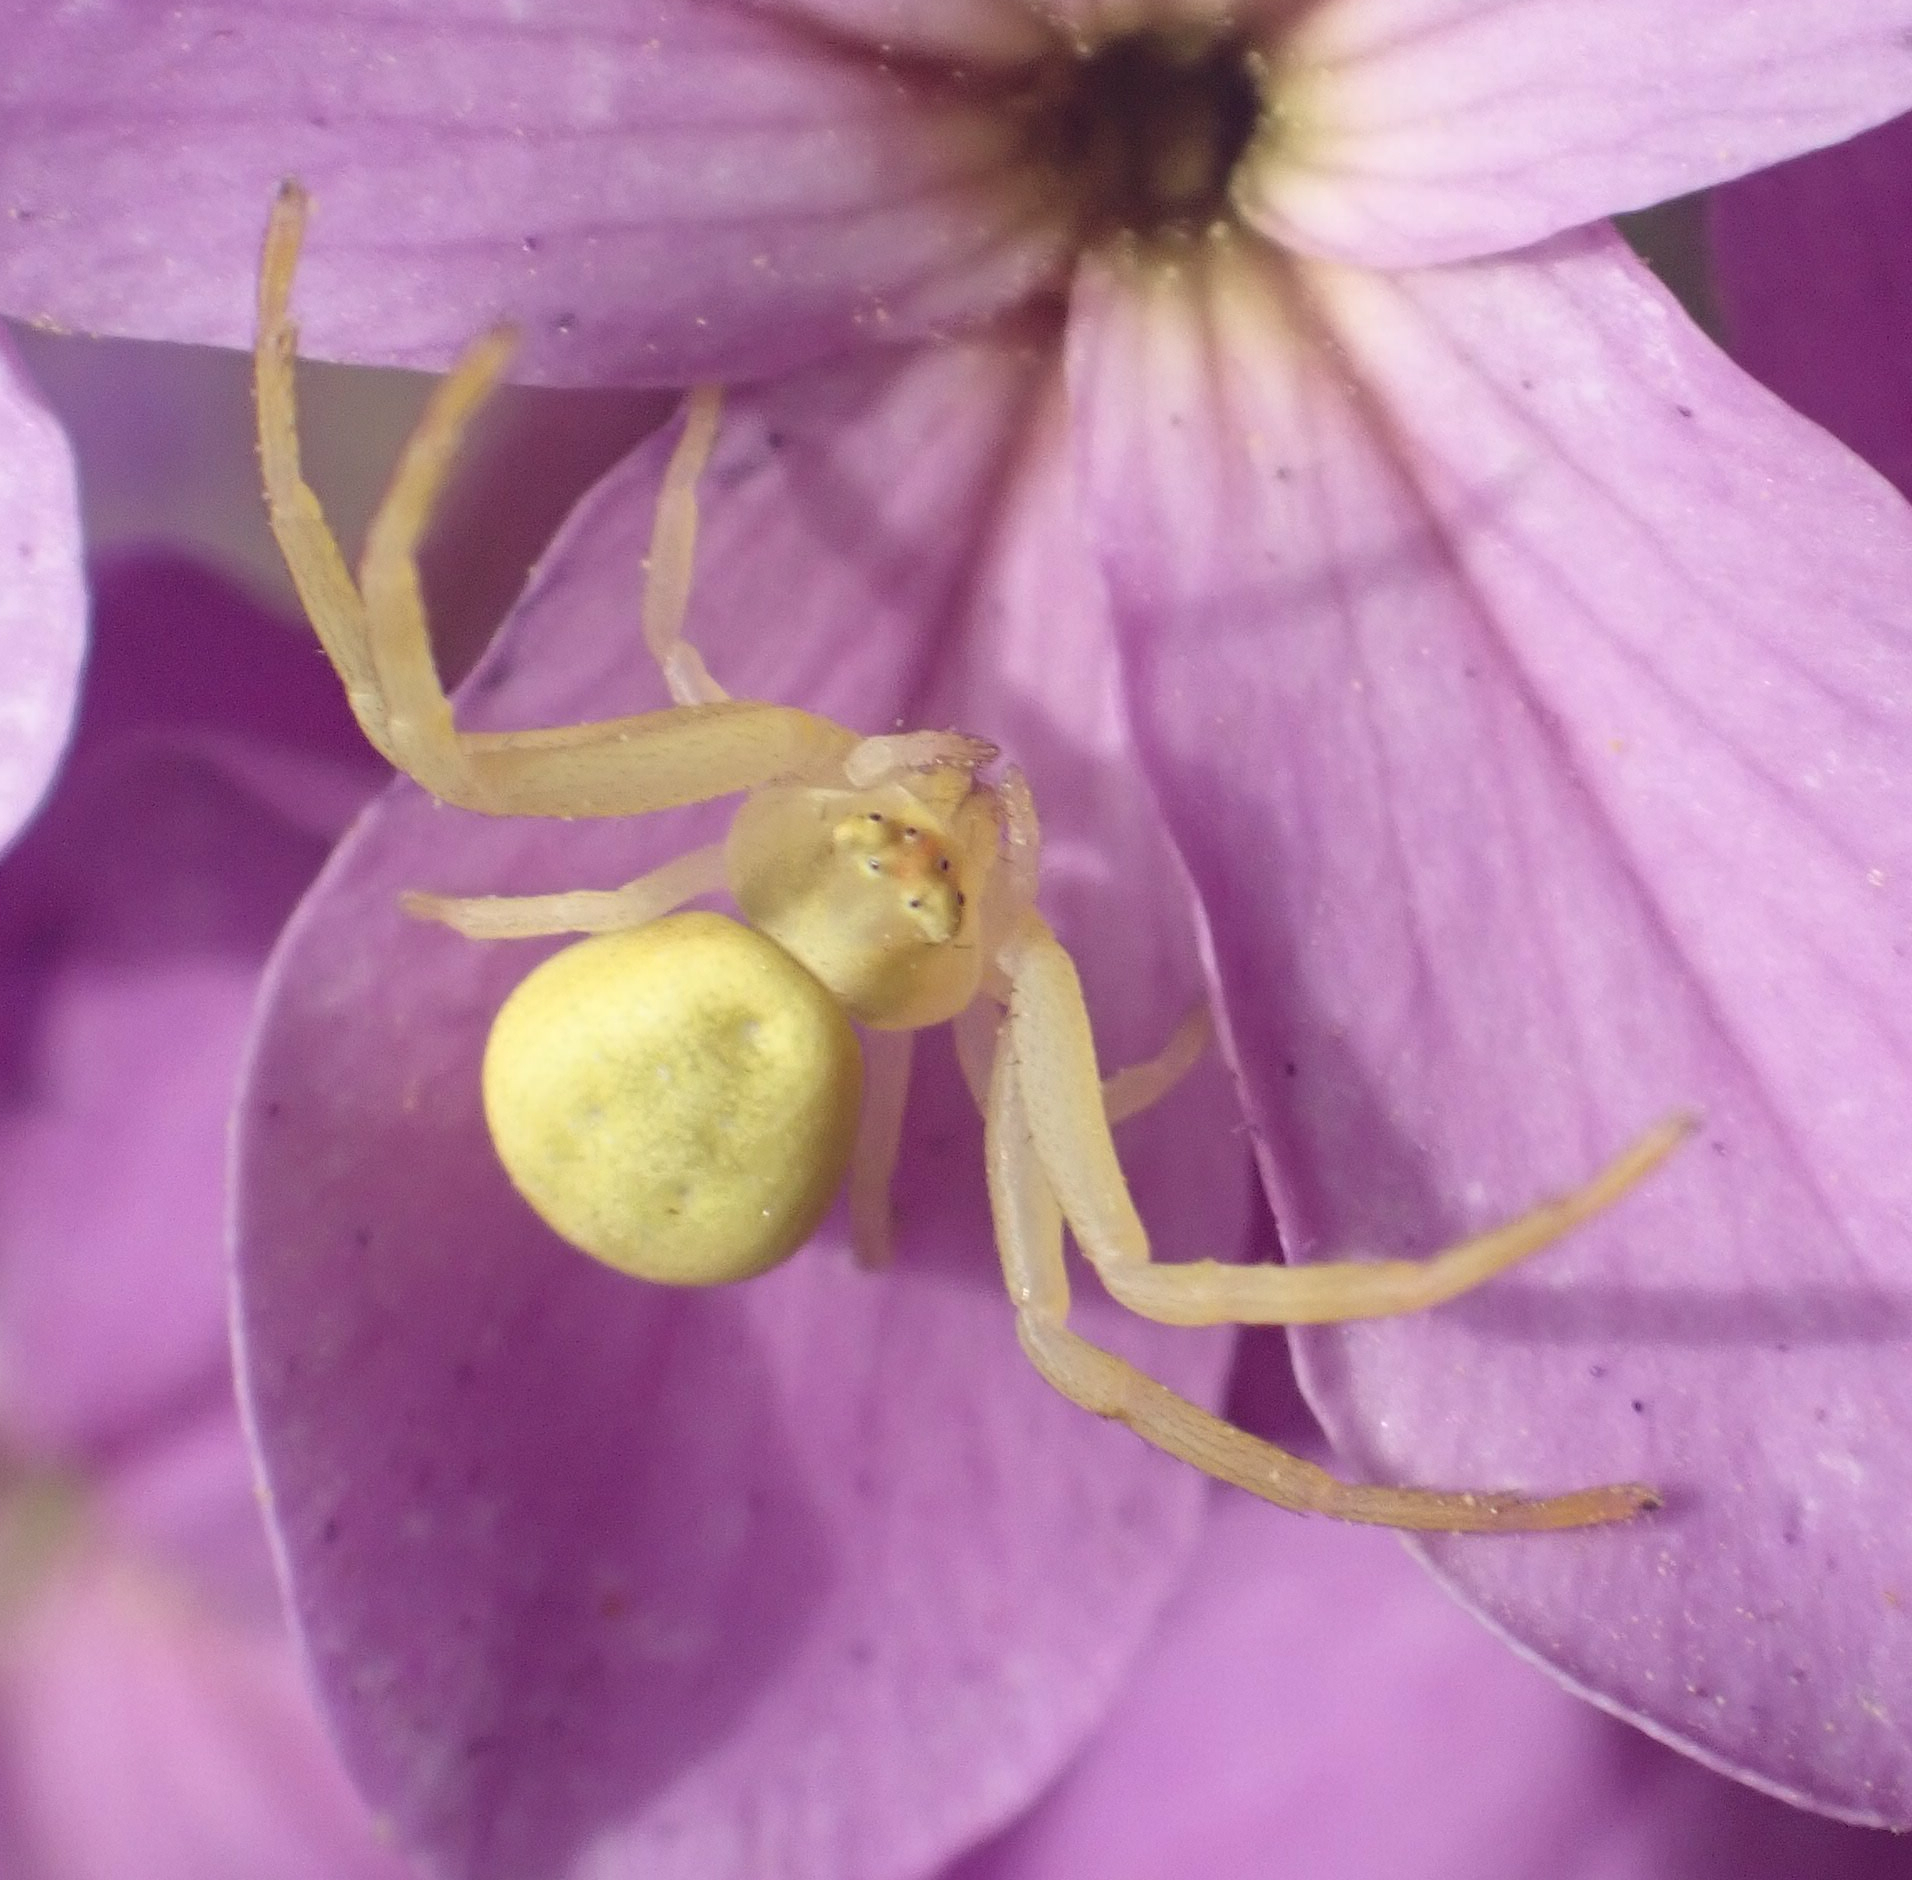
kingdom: Animalia
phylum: Arthropoda
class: Arachnida
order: Araneae
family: Thomisidae
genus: Misumena
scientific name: Misumena vatia
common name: Goldenrod crab spider
